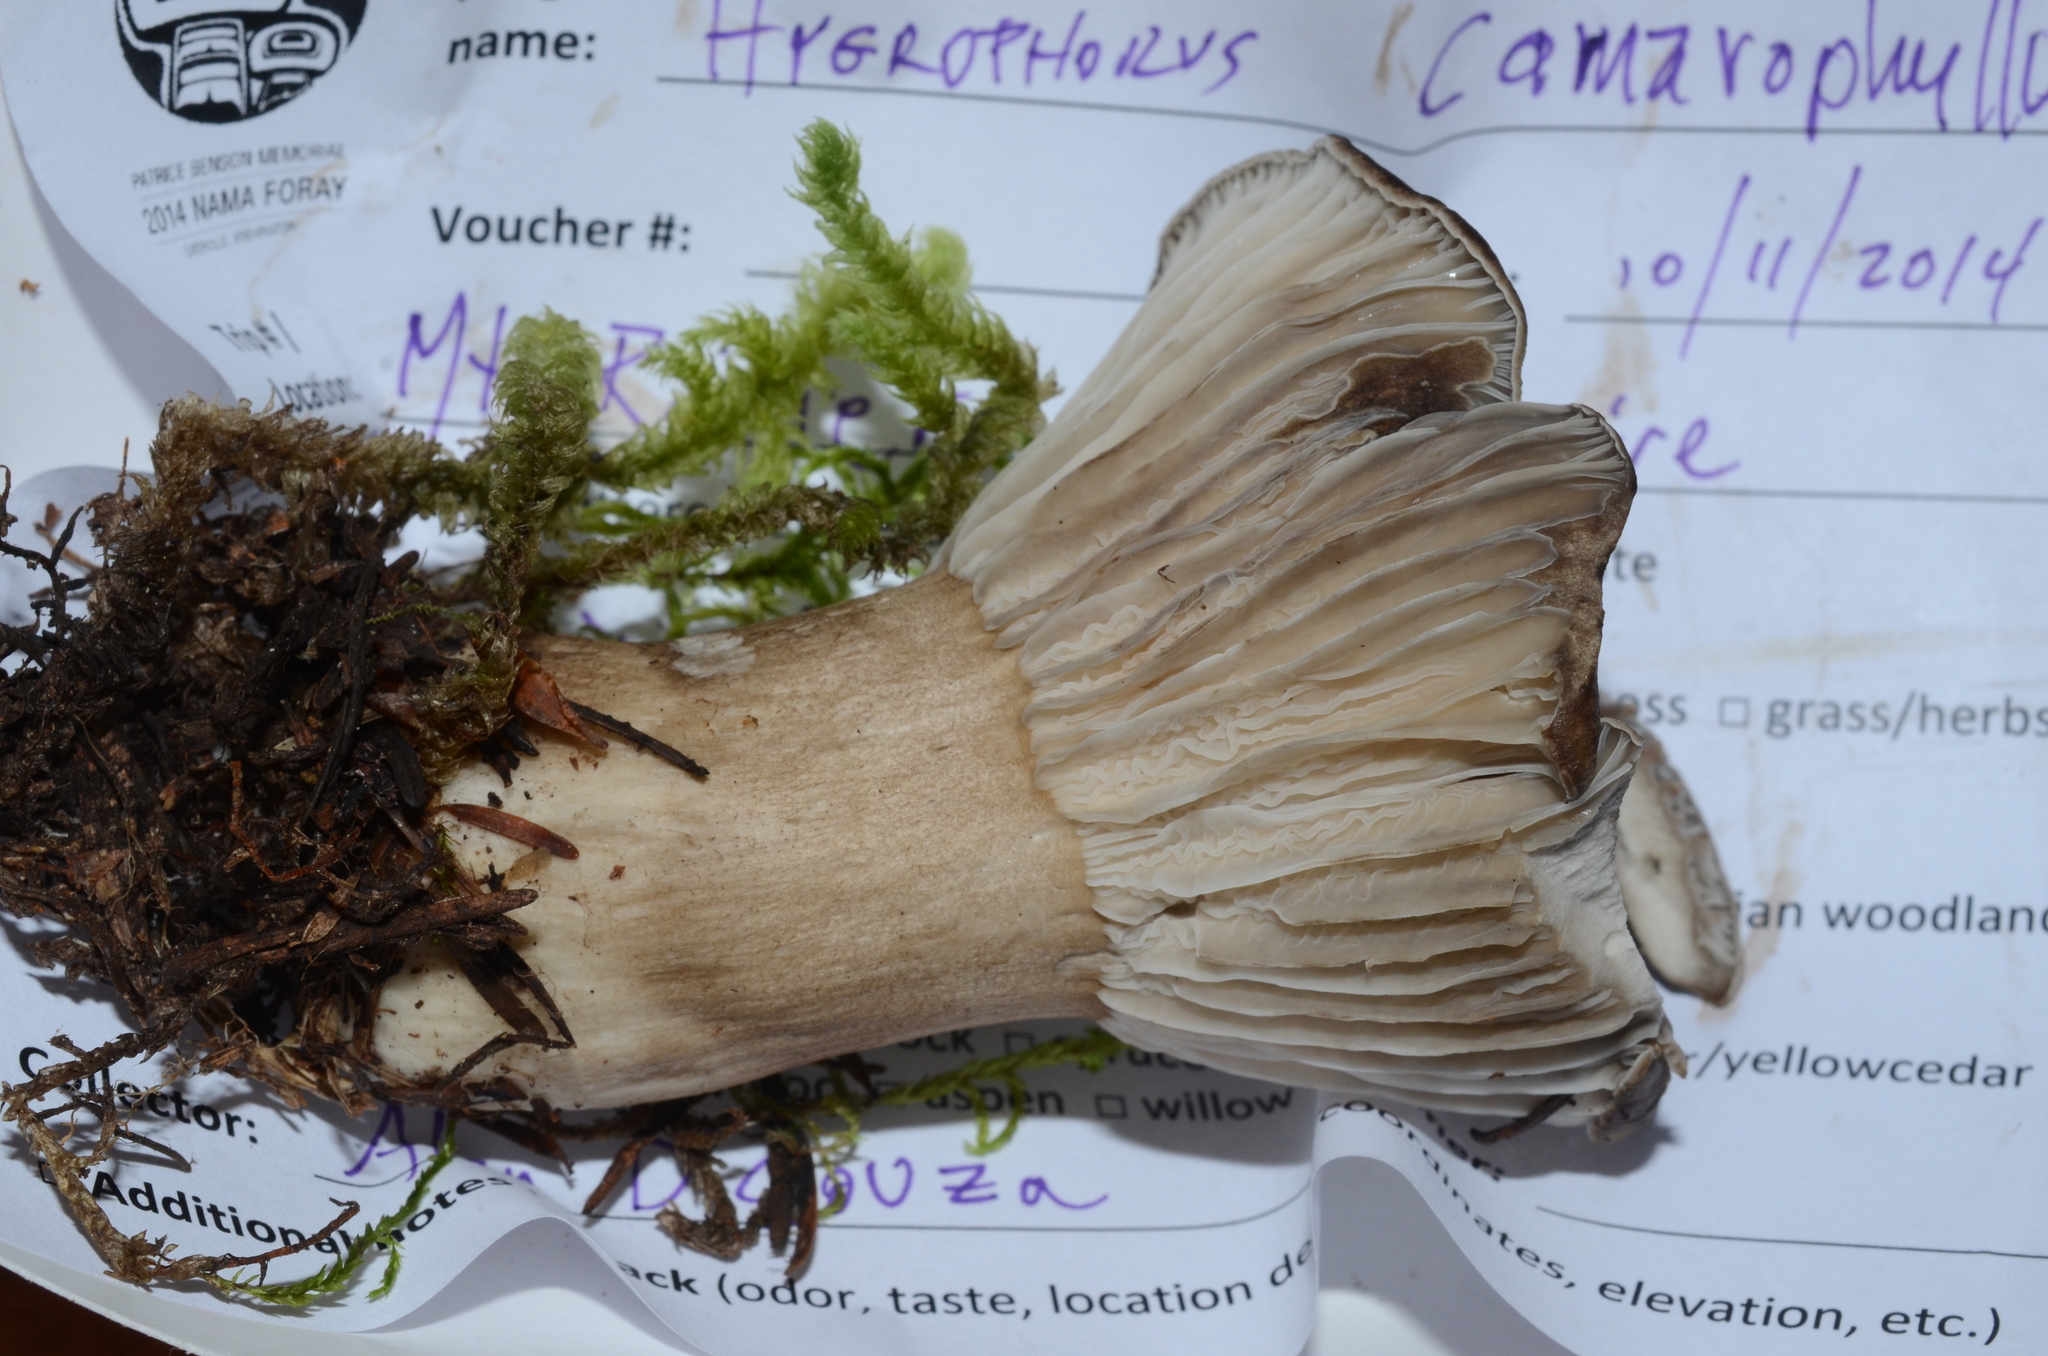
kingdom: Fungi
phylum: Basidiomycota
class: Agaricomycetes
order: Agaricales
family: Hygrophoraceae
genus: Hygrophorus
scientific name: Hygrophorus camarophyllus
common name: Arched woodwax
